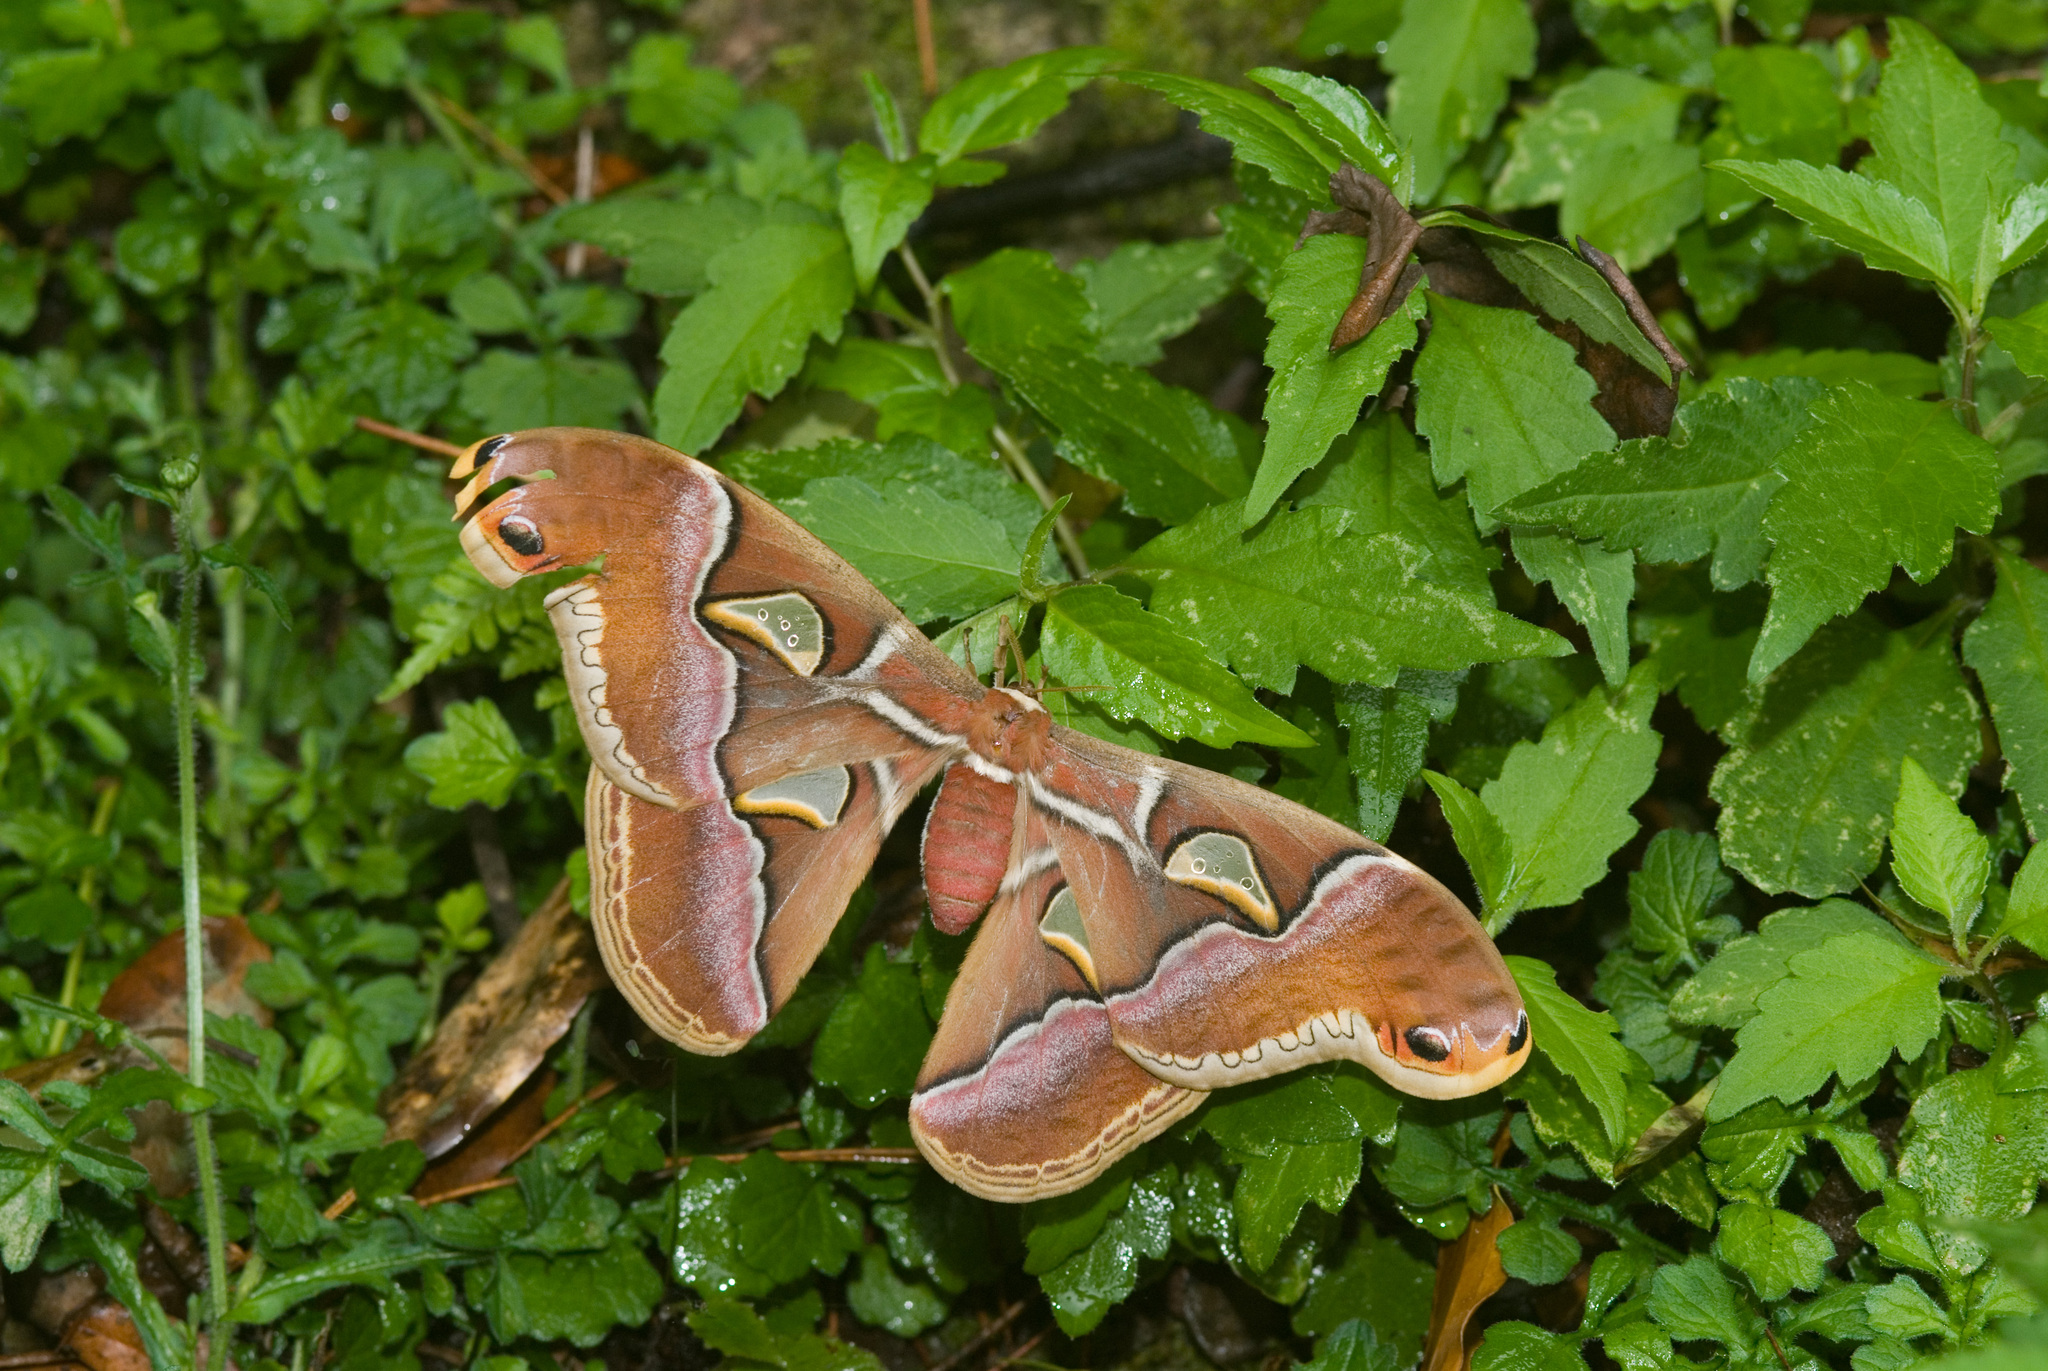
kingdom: Animalia
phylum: Arthropoda
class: Insecta
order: Lepidoptera
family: Saturniidae
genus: Samia
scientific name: Samia formosana
